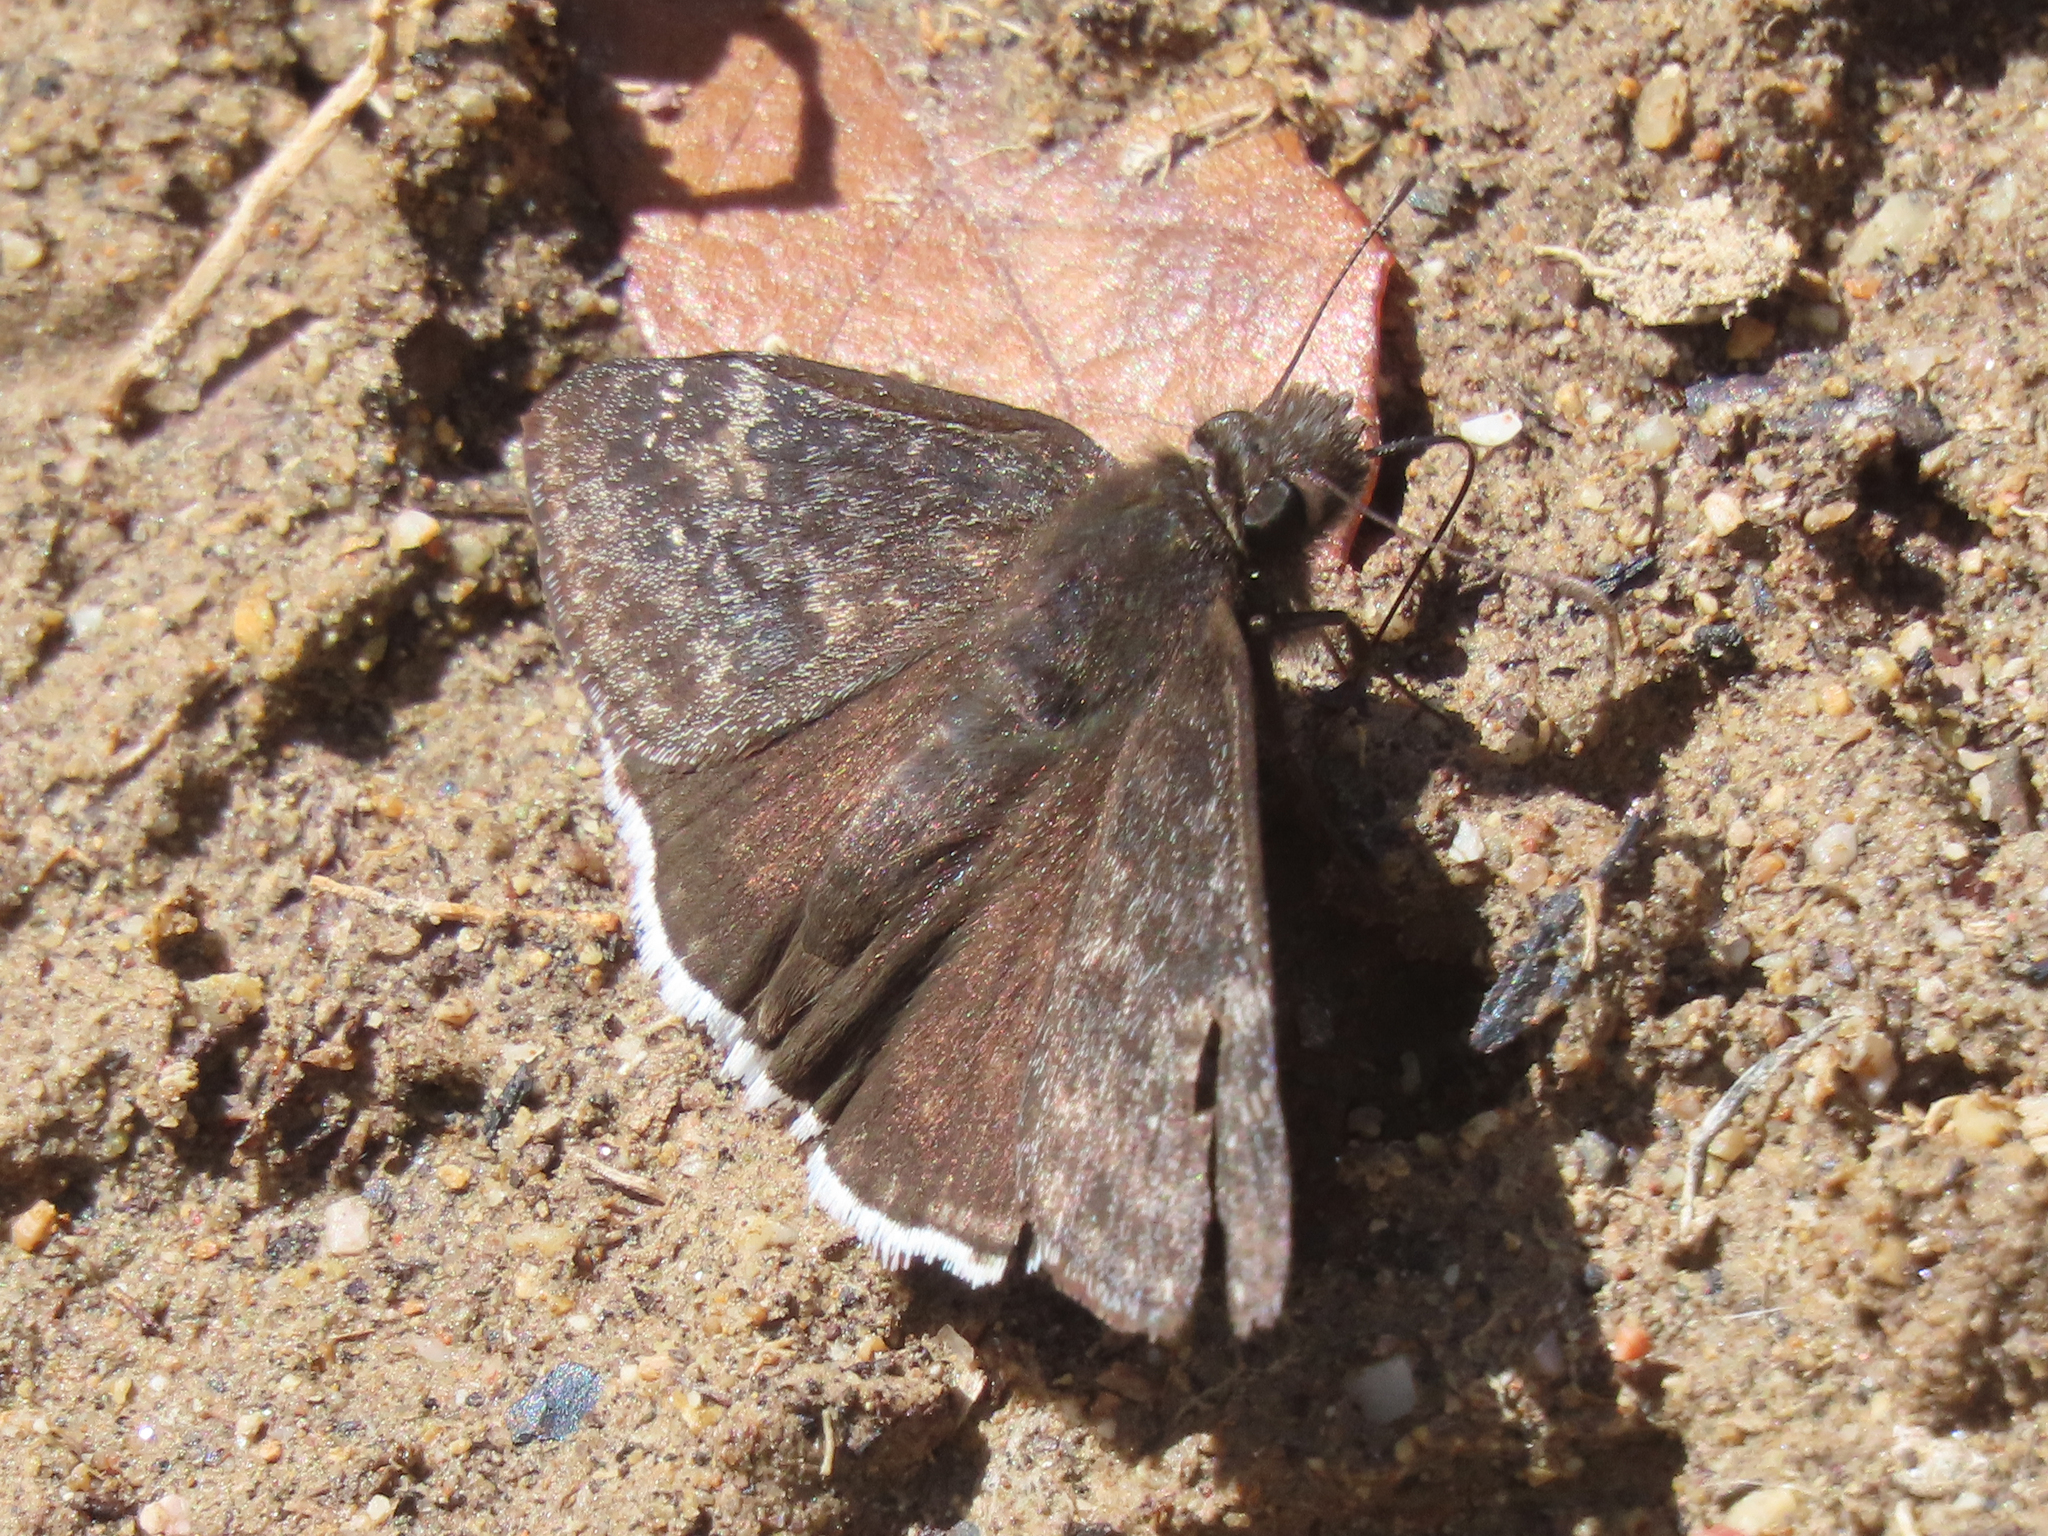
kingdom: Animalia
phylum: Arthropoda
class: Insecta
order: Lepidoptera
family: Hesperiidae
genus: Erynnis
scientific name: Erynnis funeralis
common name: Funereal duskywing
